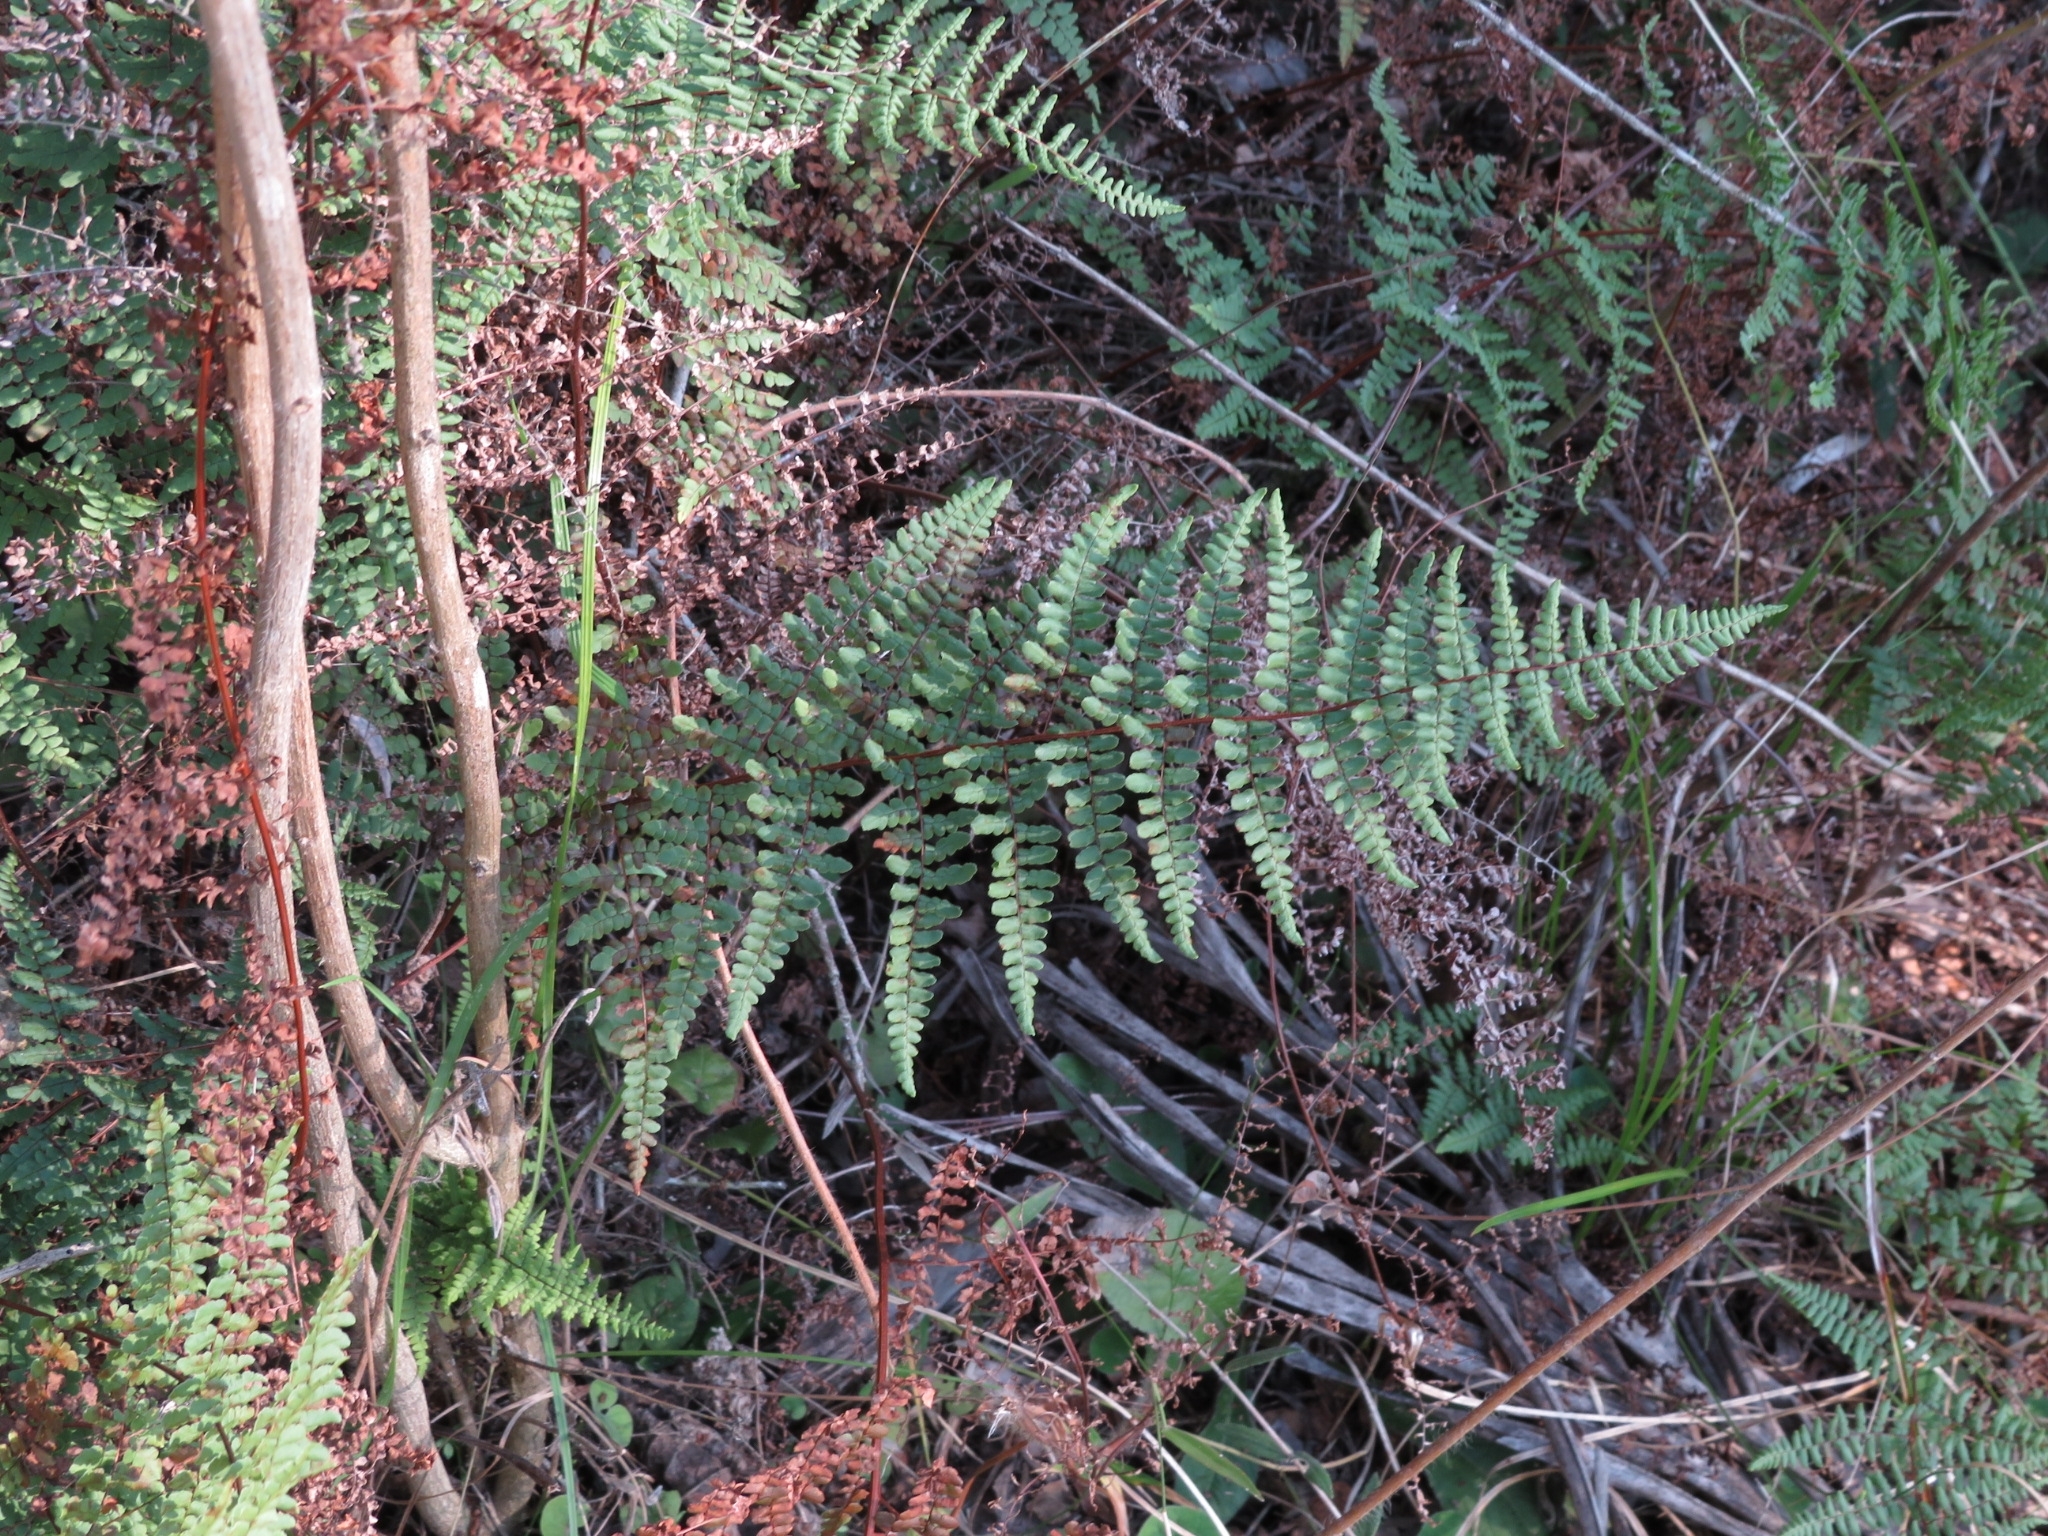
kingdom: Plantae
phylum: Tracheophyta
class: Polypodiopsida
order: Polypodiales
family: Pteridaceae
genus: Adiantopsis
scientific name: Adiantopsis chlorophylla
